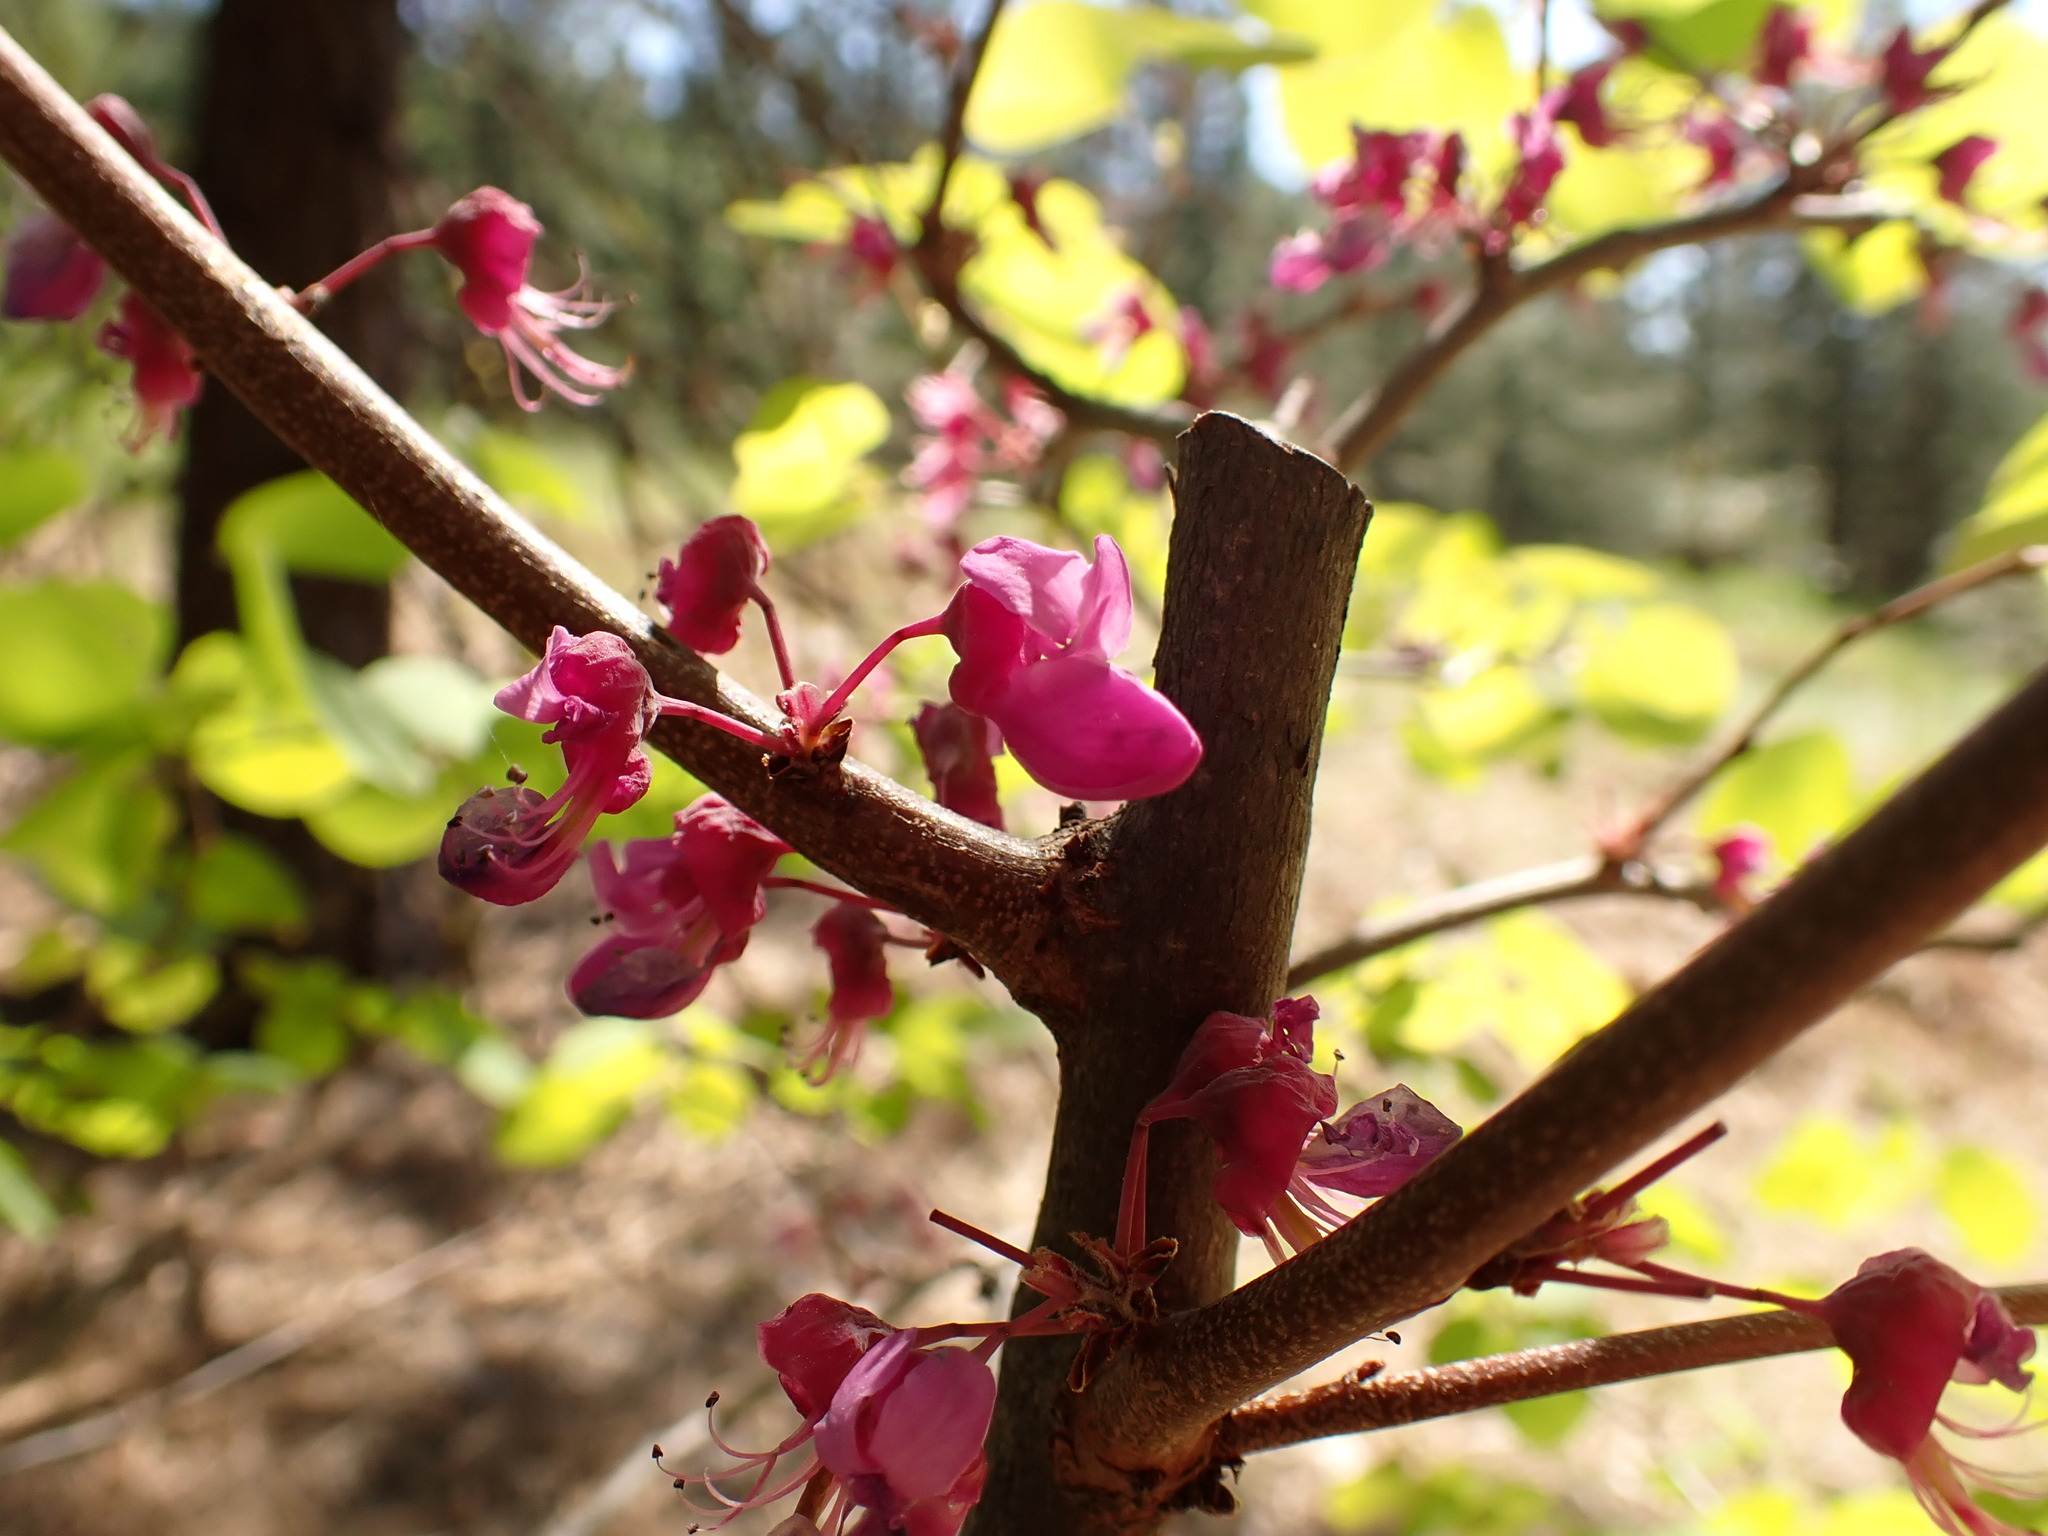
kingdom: Plantae
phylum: Tracheophyta
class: Magnoliopsida
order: Fabales
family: Fabaceae
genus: Cercis
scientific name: Cercis occidentalis
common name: California redbud
